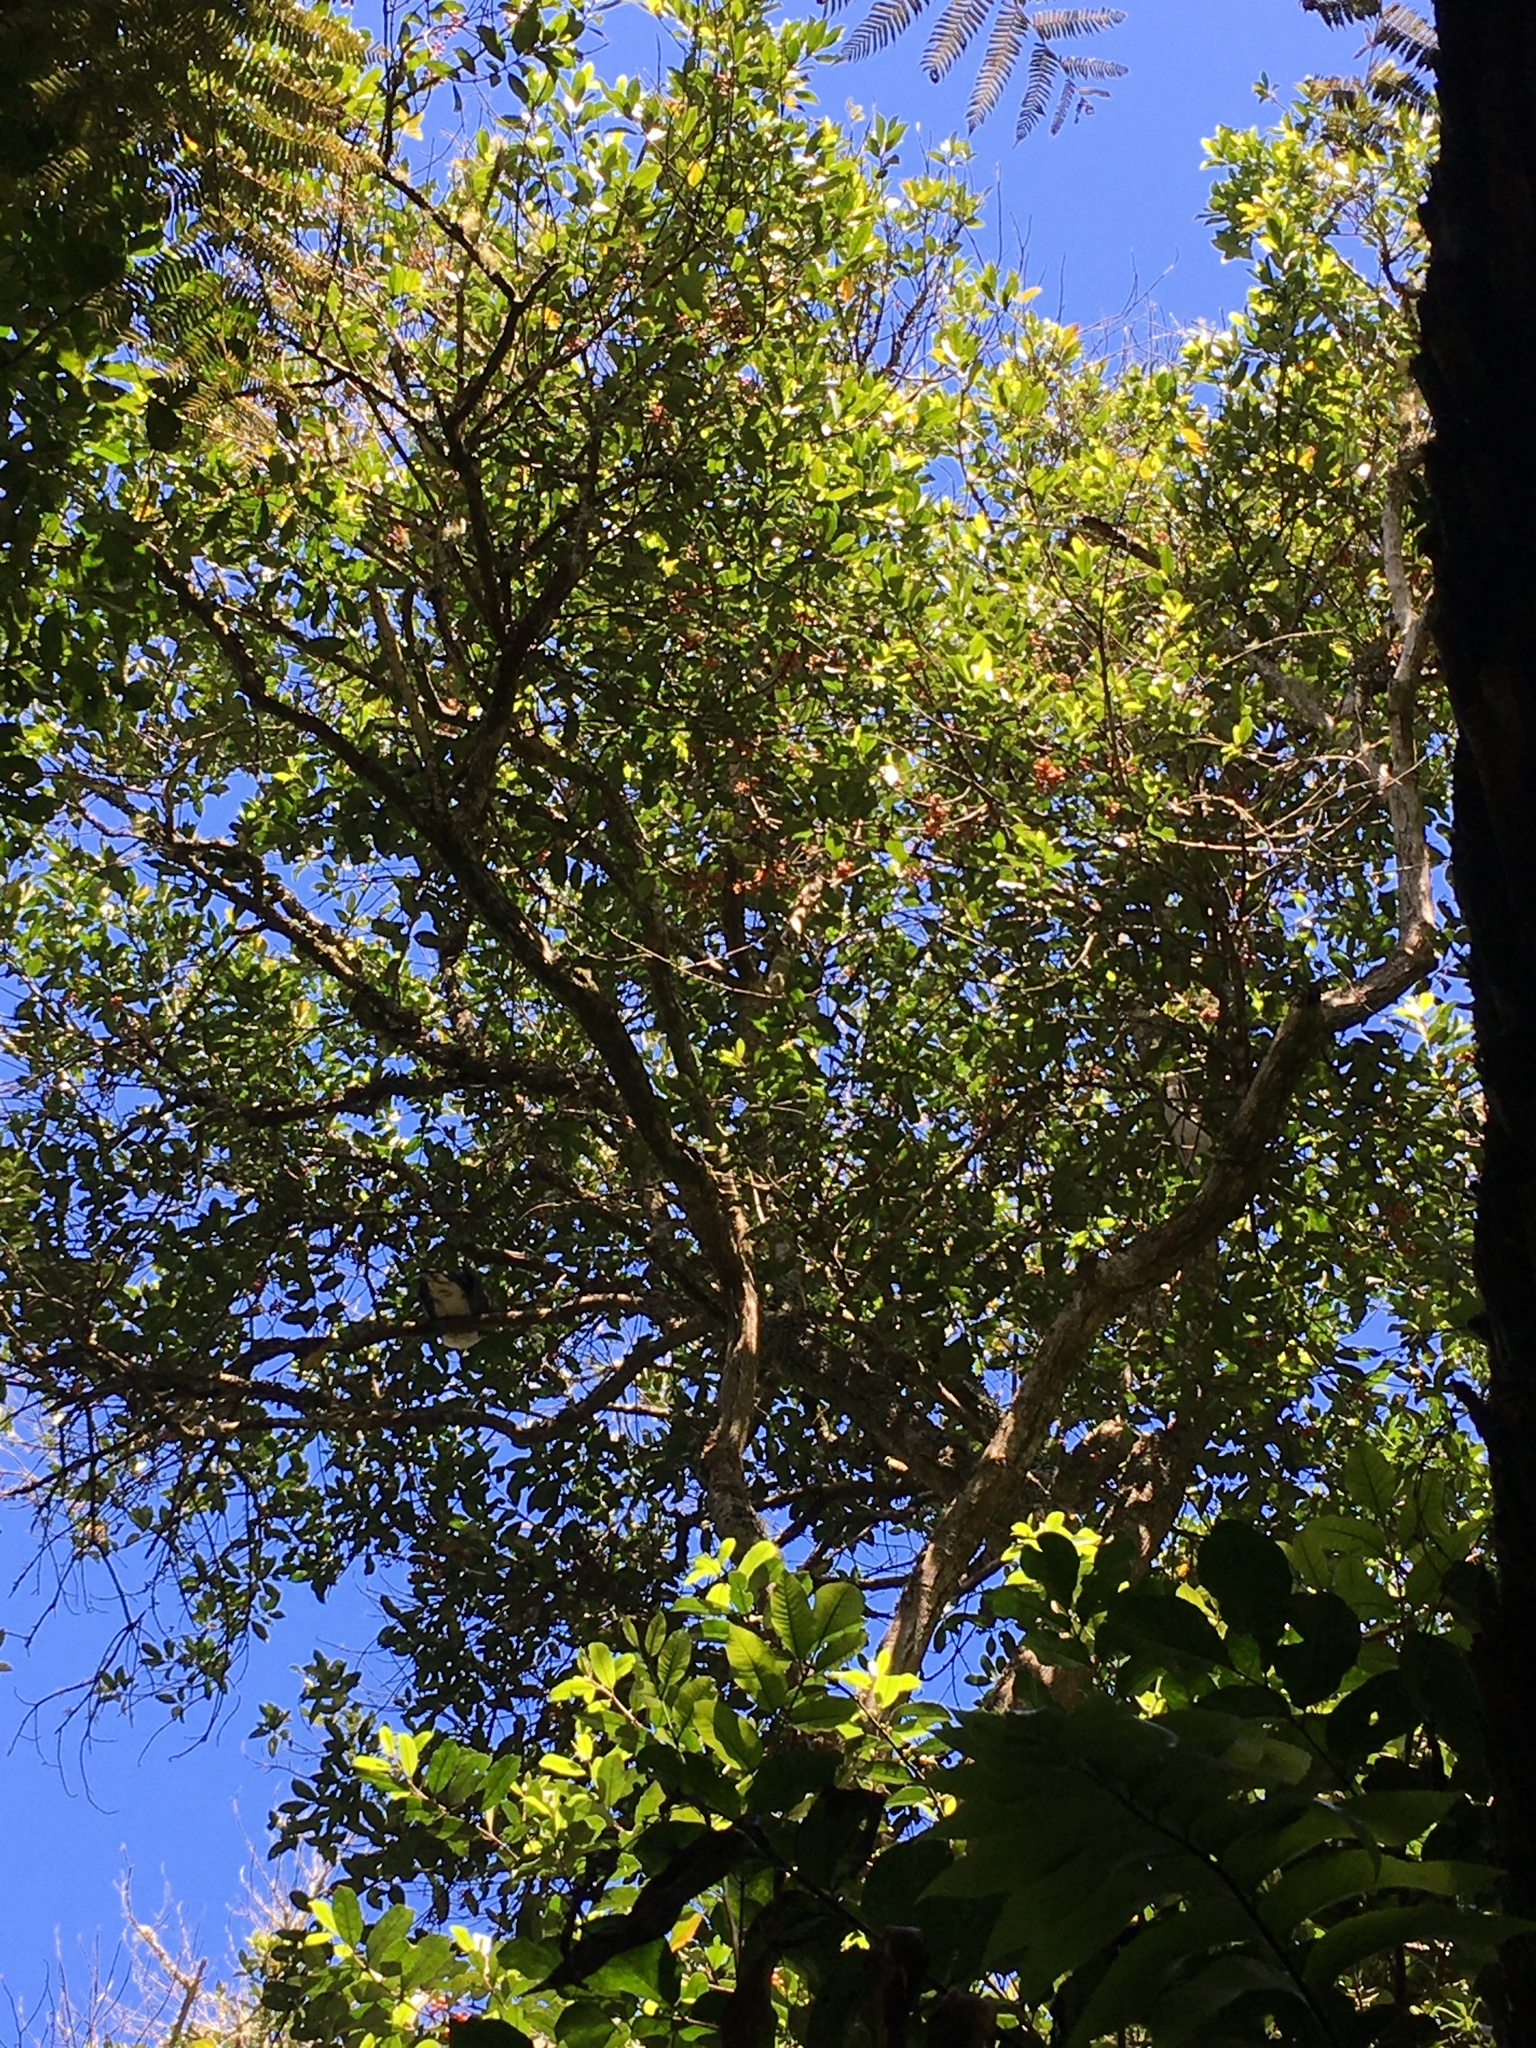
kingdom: Plantae
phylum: Tracheophyta
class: Magnoliopsida
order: Laurales
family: Monimiaceae
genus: Hedycarya
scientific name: Hedycarya arborea
